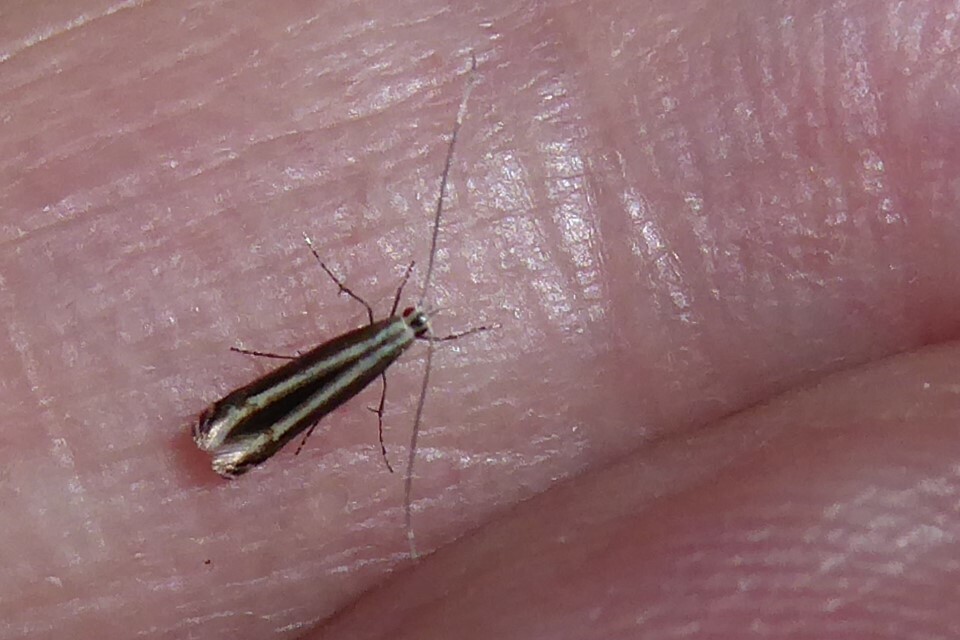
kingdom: Animalia
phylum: Arthropoda
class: Insecta
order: Lepidoptera
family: Gracillariidae
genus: Acrocercops
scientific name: Acrocercops laciniella
